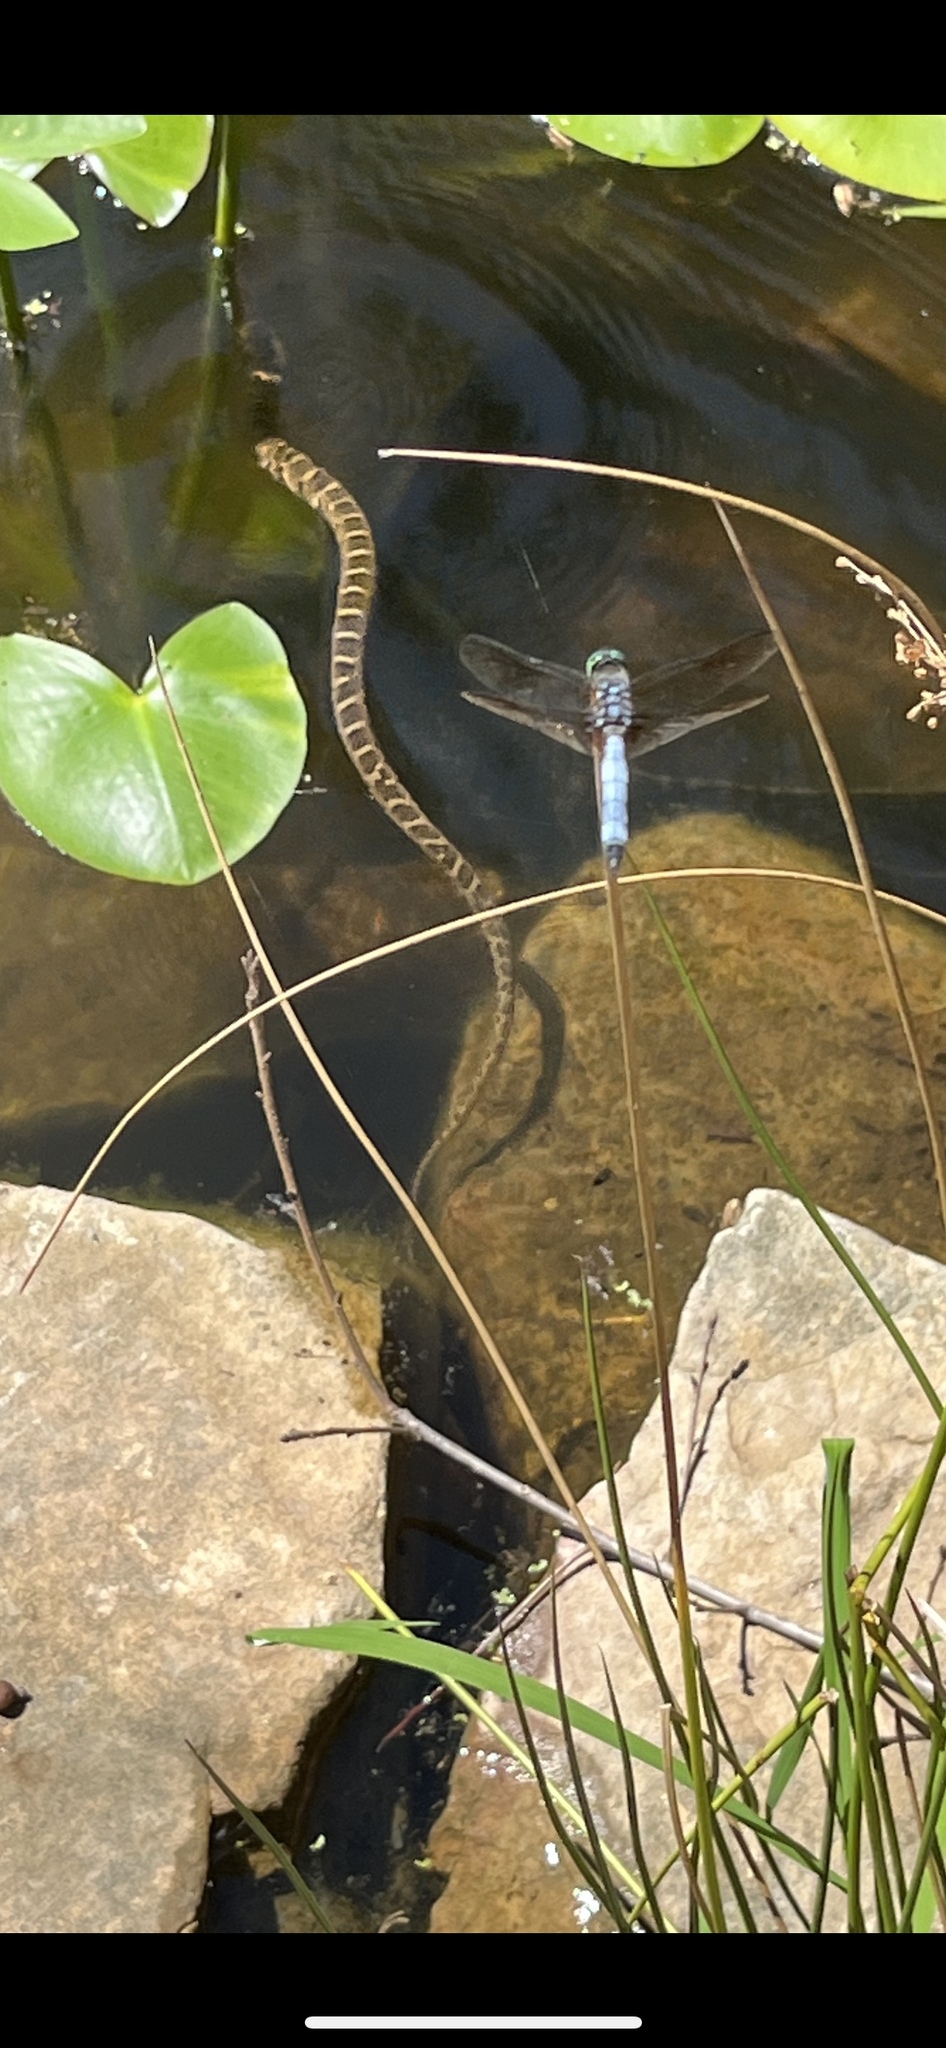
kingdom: Animalia
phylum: Chordata
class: Squamata
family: Colubridae
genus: Nerodia
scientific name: Nerodia sipedon
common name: Northern water snake
